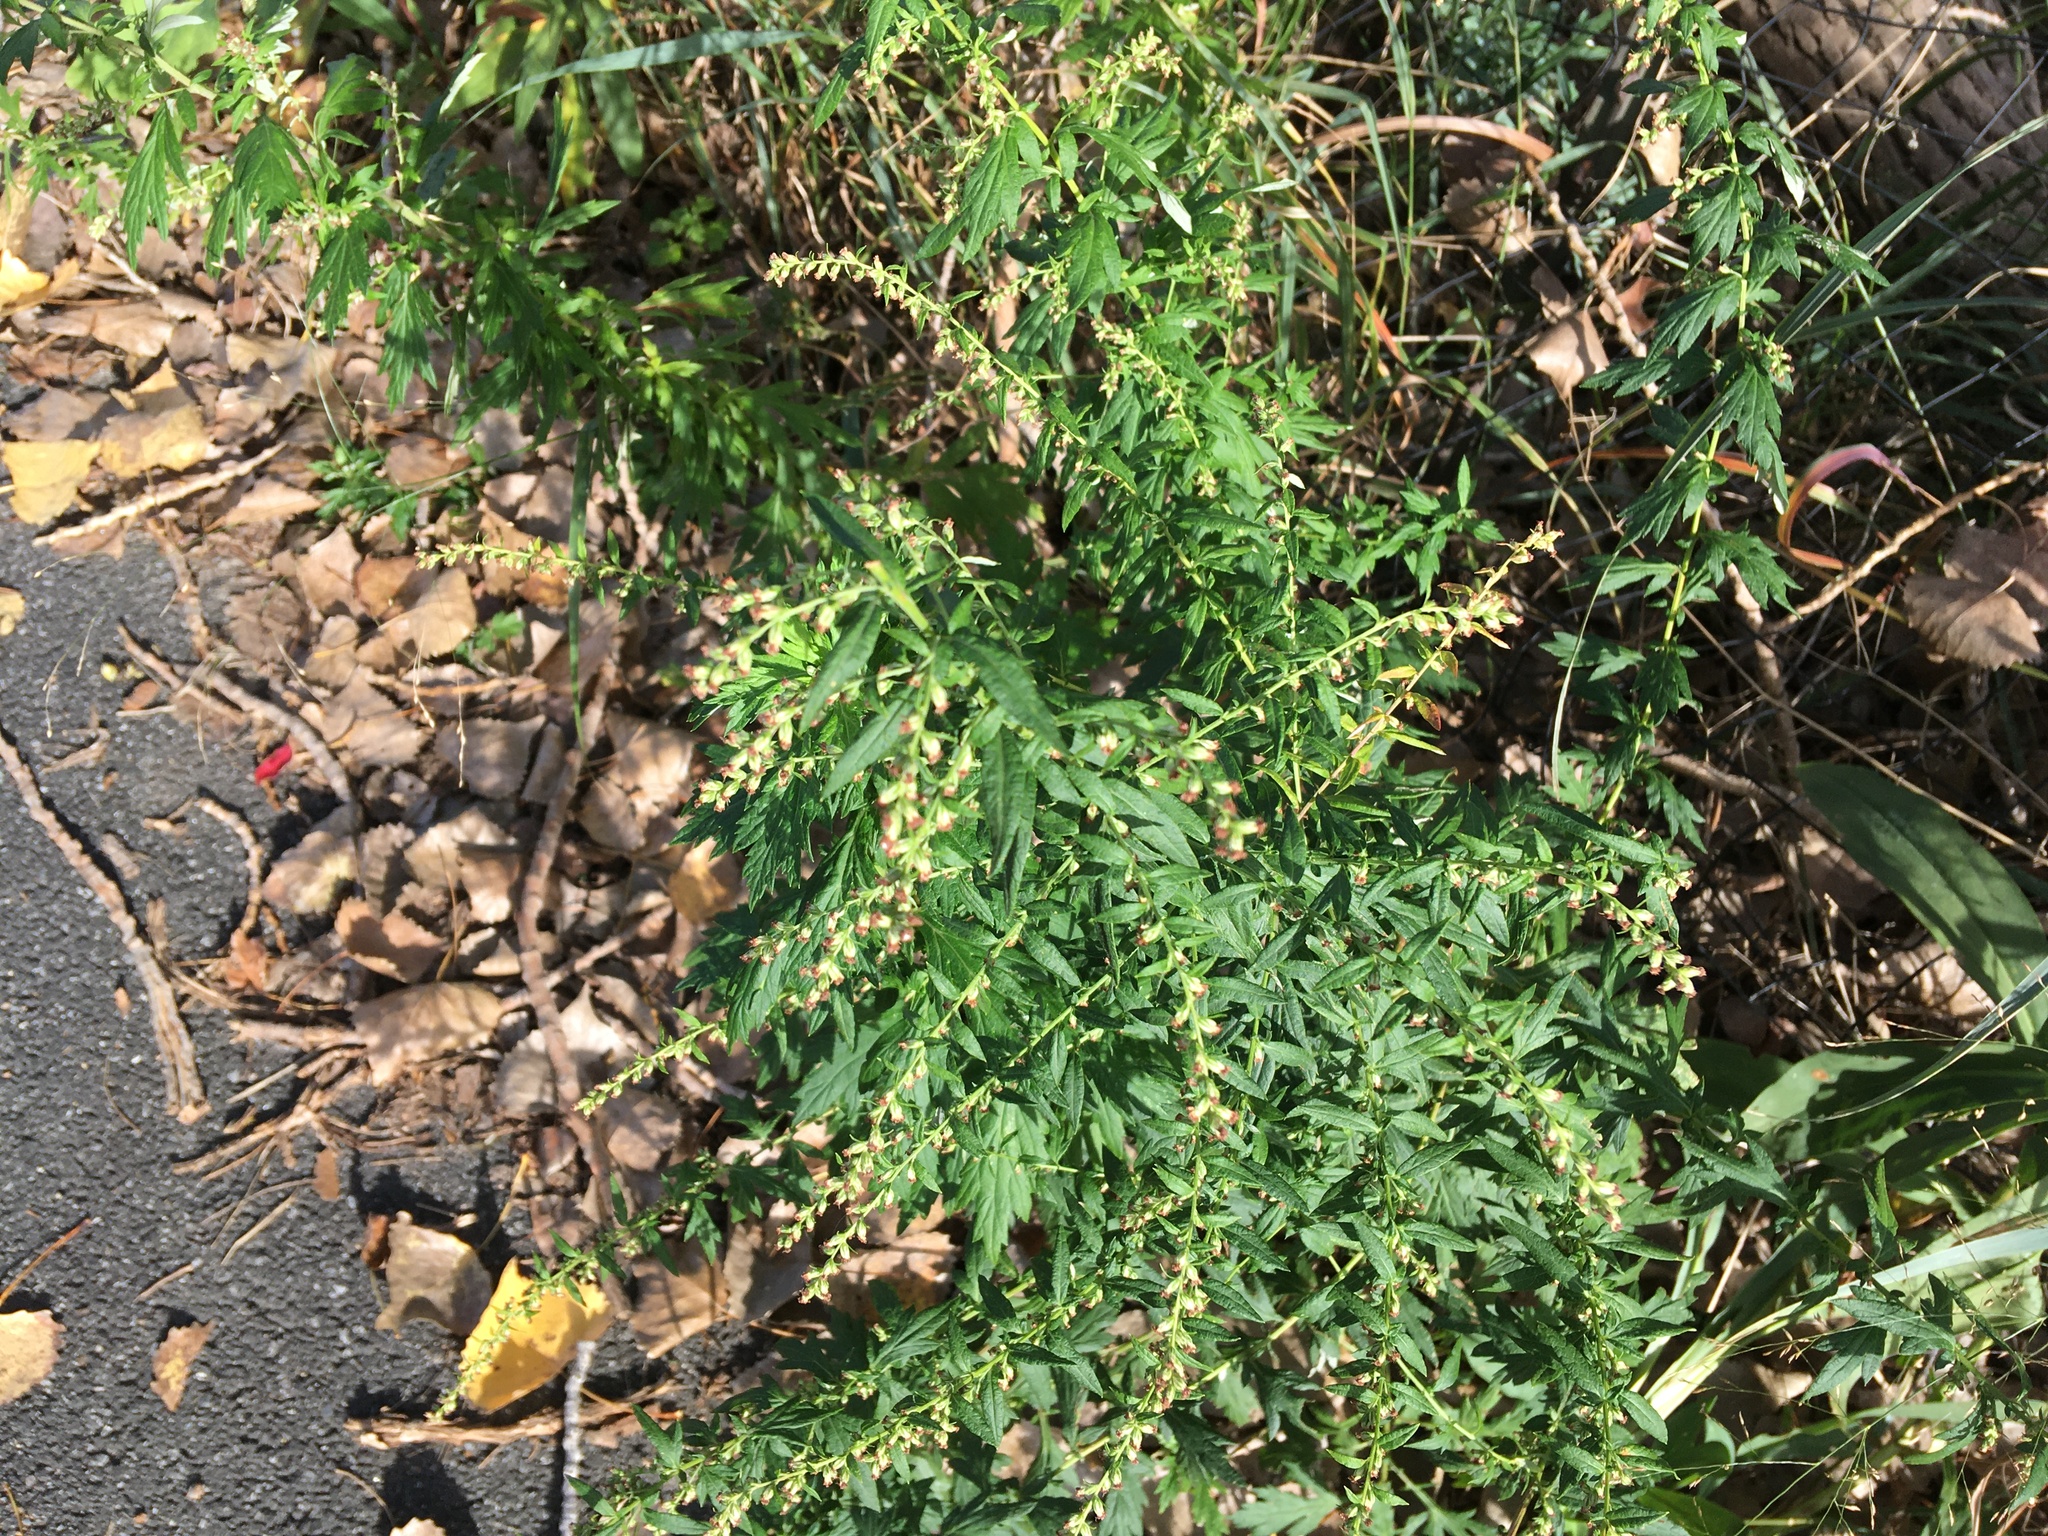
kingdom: Plantae
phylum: Tracheophyta
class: Magnoliopsida
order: Asterales
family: Asteraceae
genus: Artemisia
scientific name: Artemisia vulgaris
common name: Mugwort
